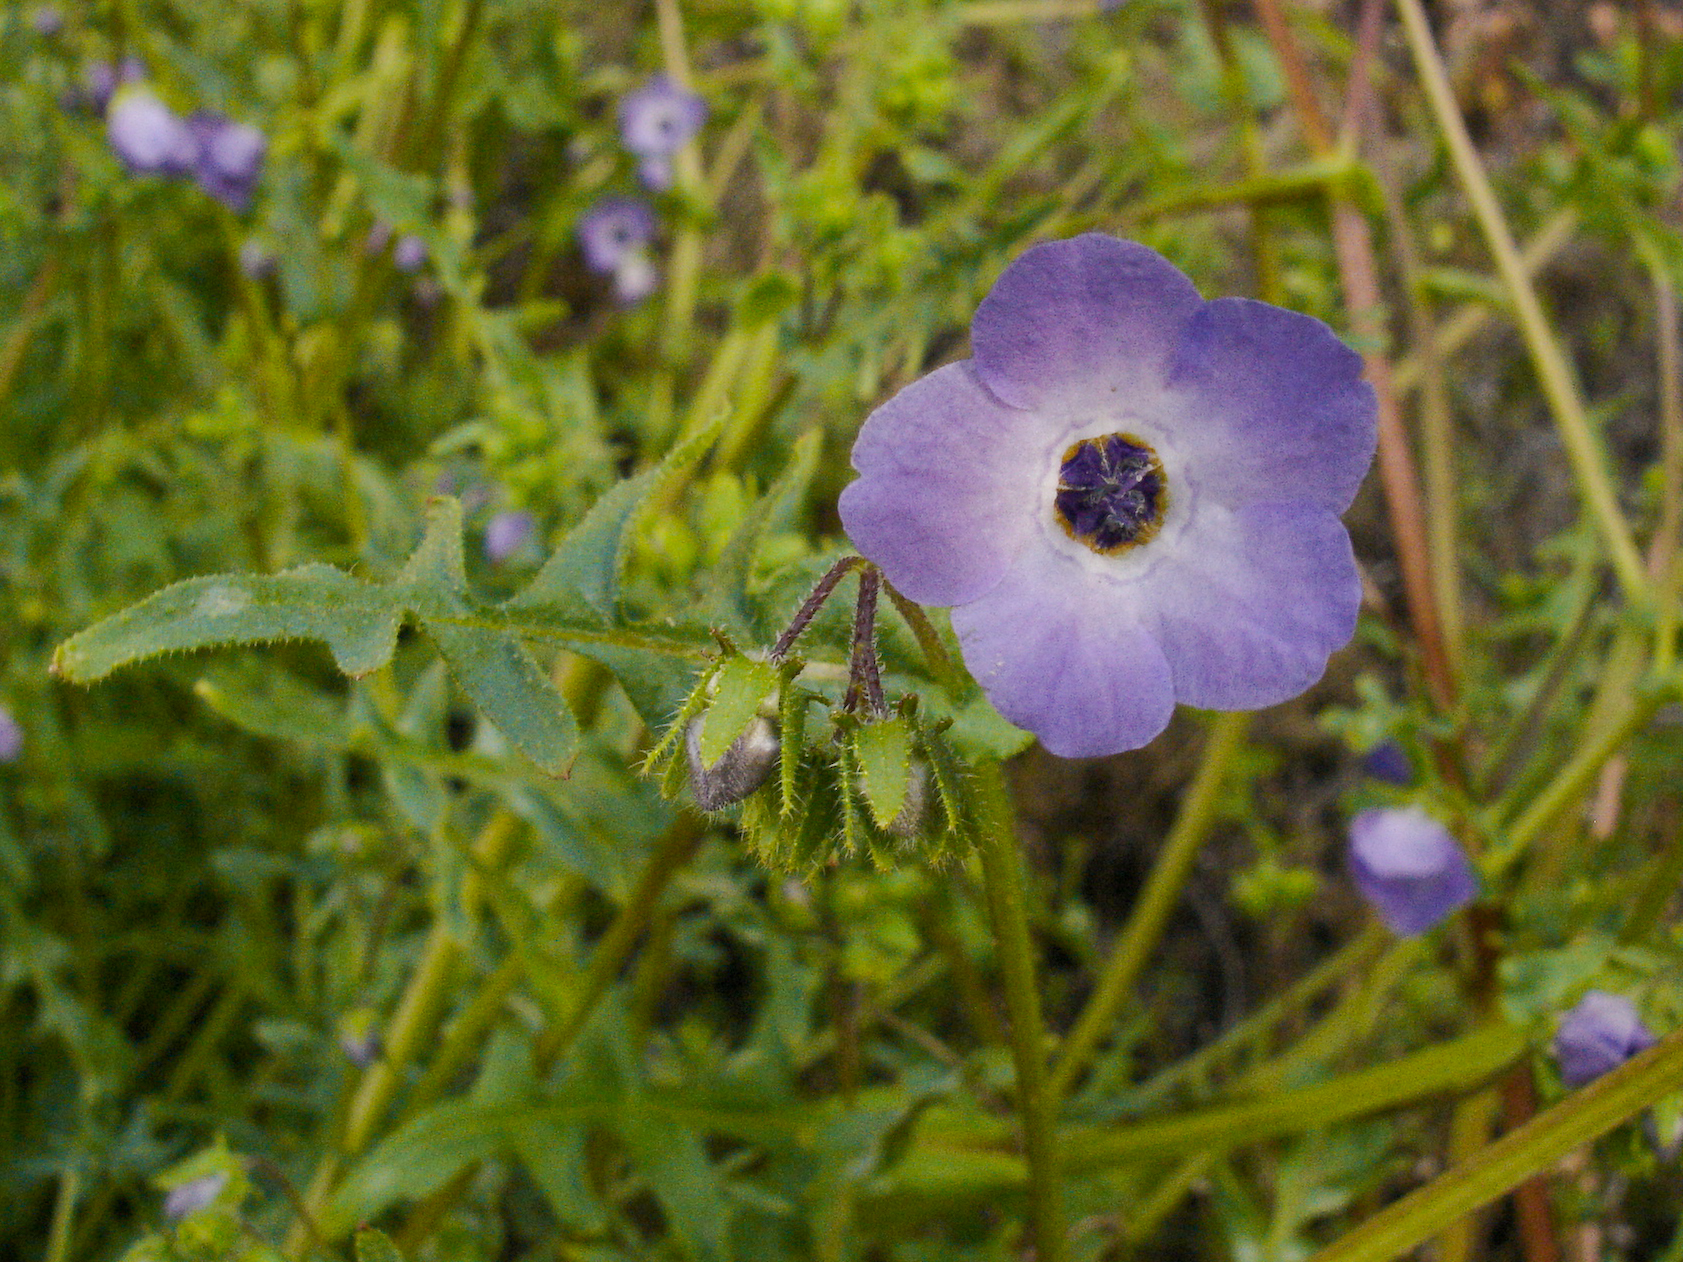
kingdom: Plantae
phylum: Tracheophyta
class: Magnoliopsida
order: Boraginales
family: Hydrophyllaceae
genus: Pholistoma
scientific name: Pholistoma auritum
